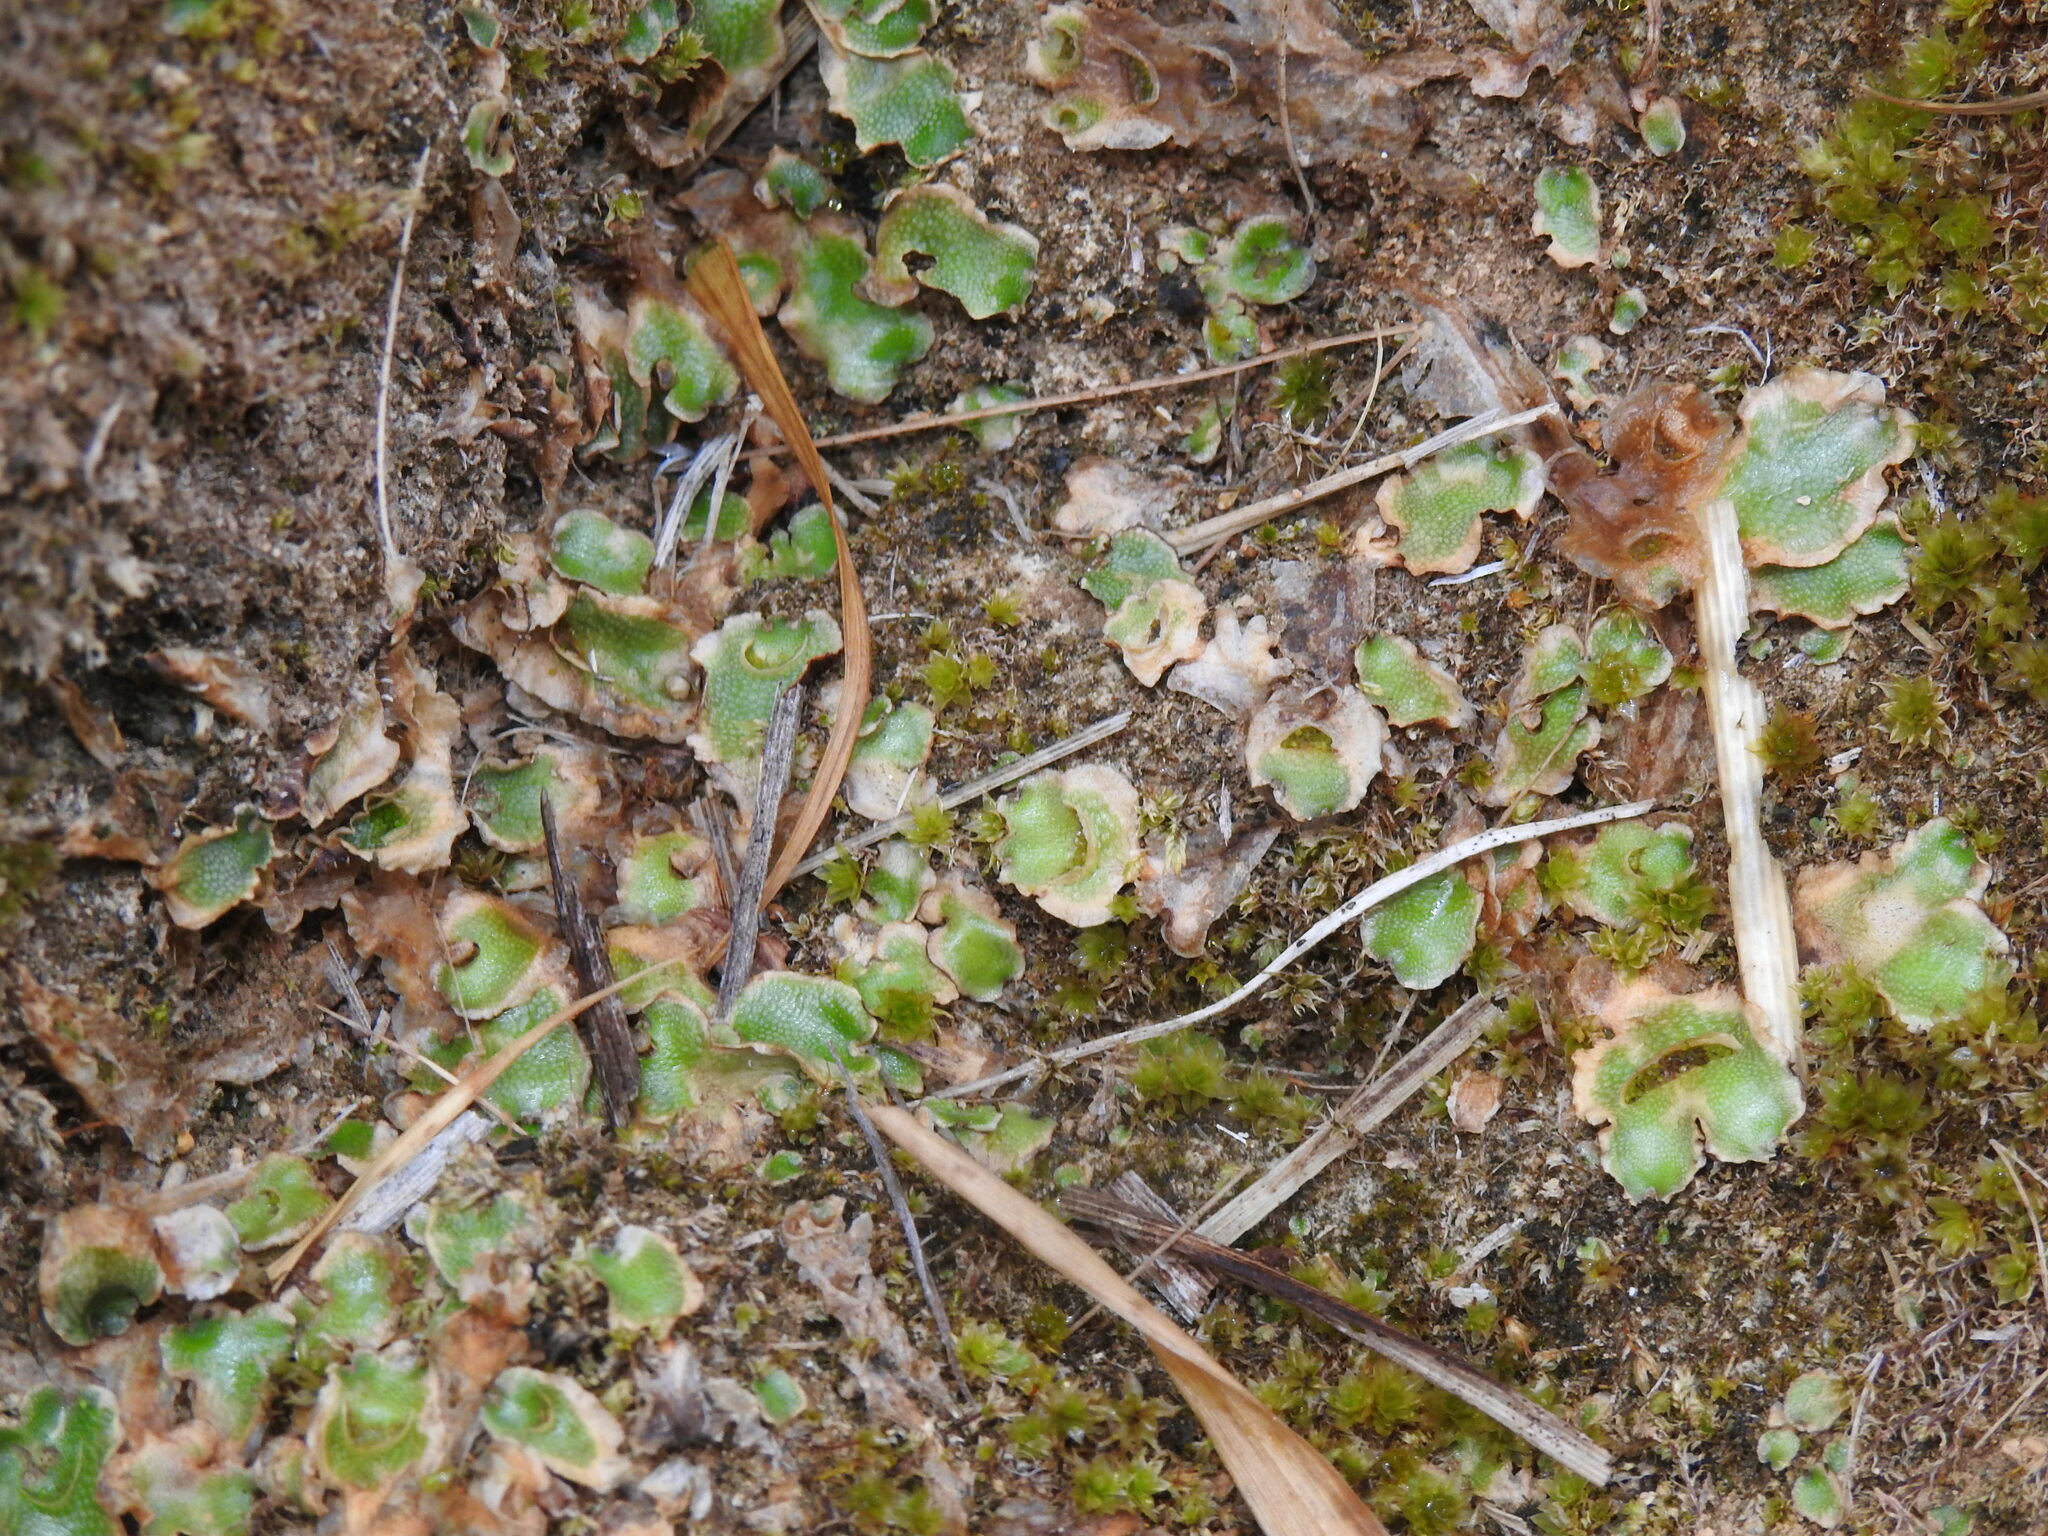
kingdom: Plantae
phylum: Marchantiophyta
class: Marchantiopsida
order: Lunulariales
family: Lunulariaceae
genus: Lunularia
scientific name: Lunularia cruciata
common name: Crescent-cup liverwort
